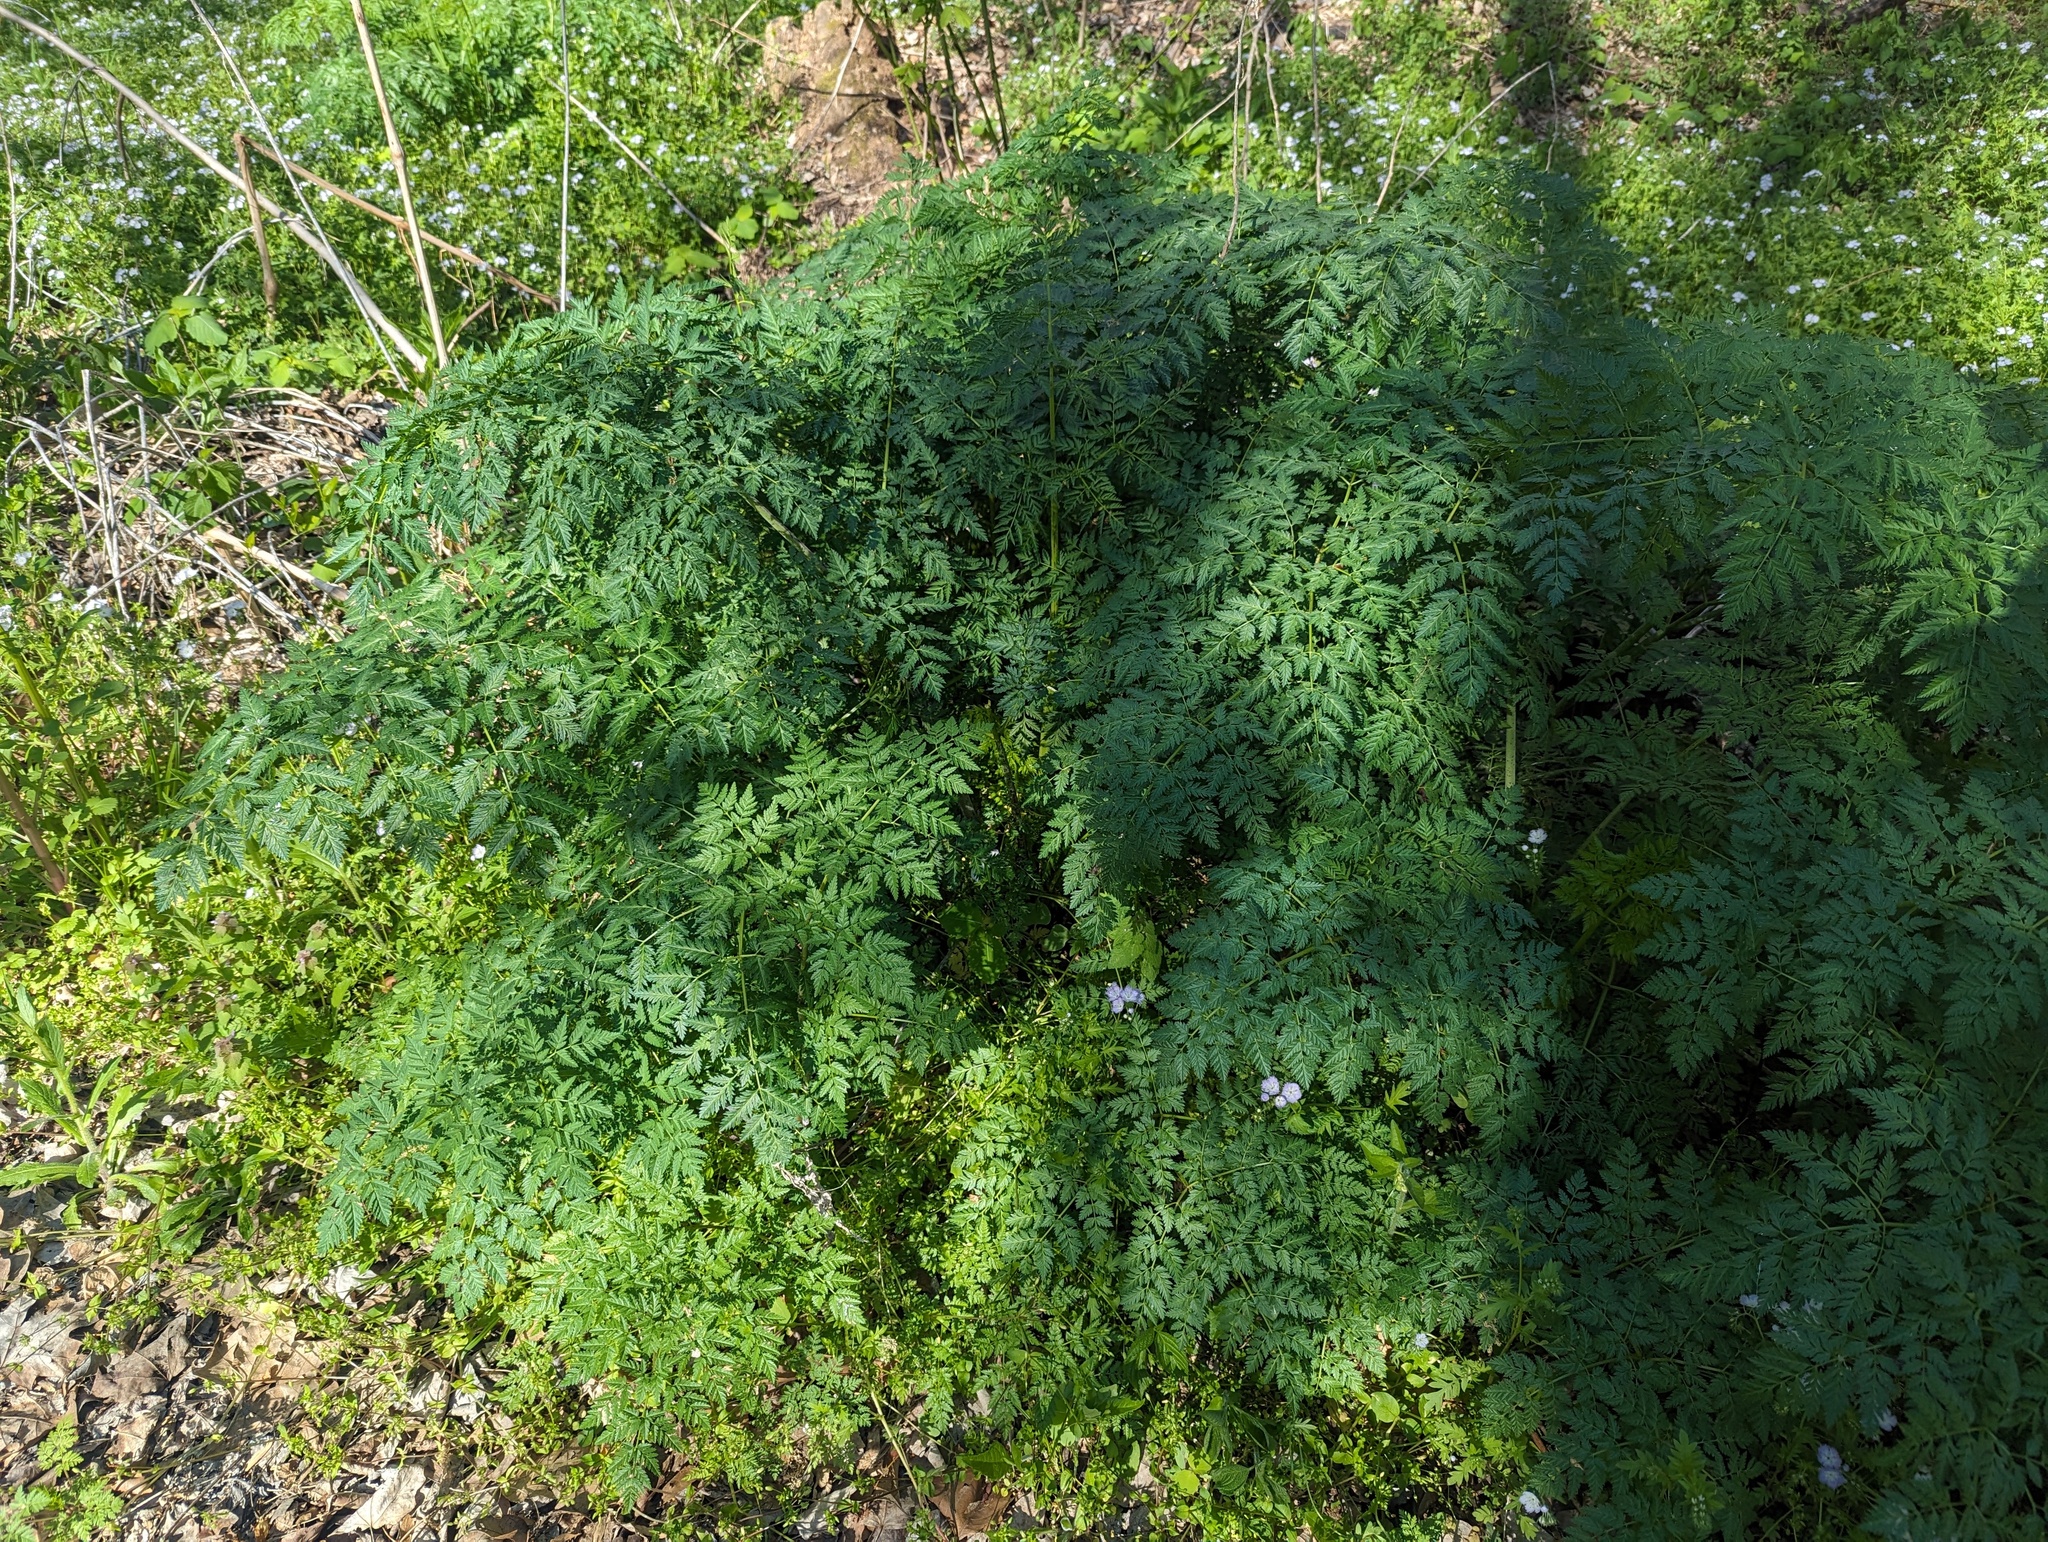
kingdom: Plantae
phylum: Tracheophyta
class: Magnoliopsida
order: Apiales
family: Apiaceae
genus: Conium
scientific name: Conium maculatum
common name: Hemlock
